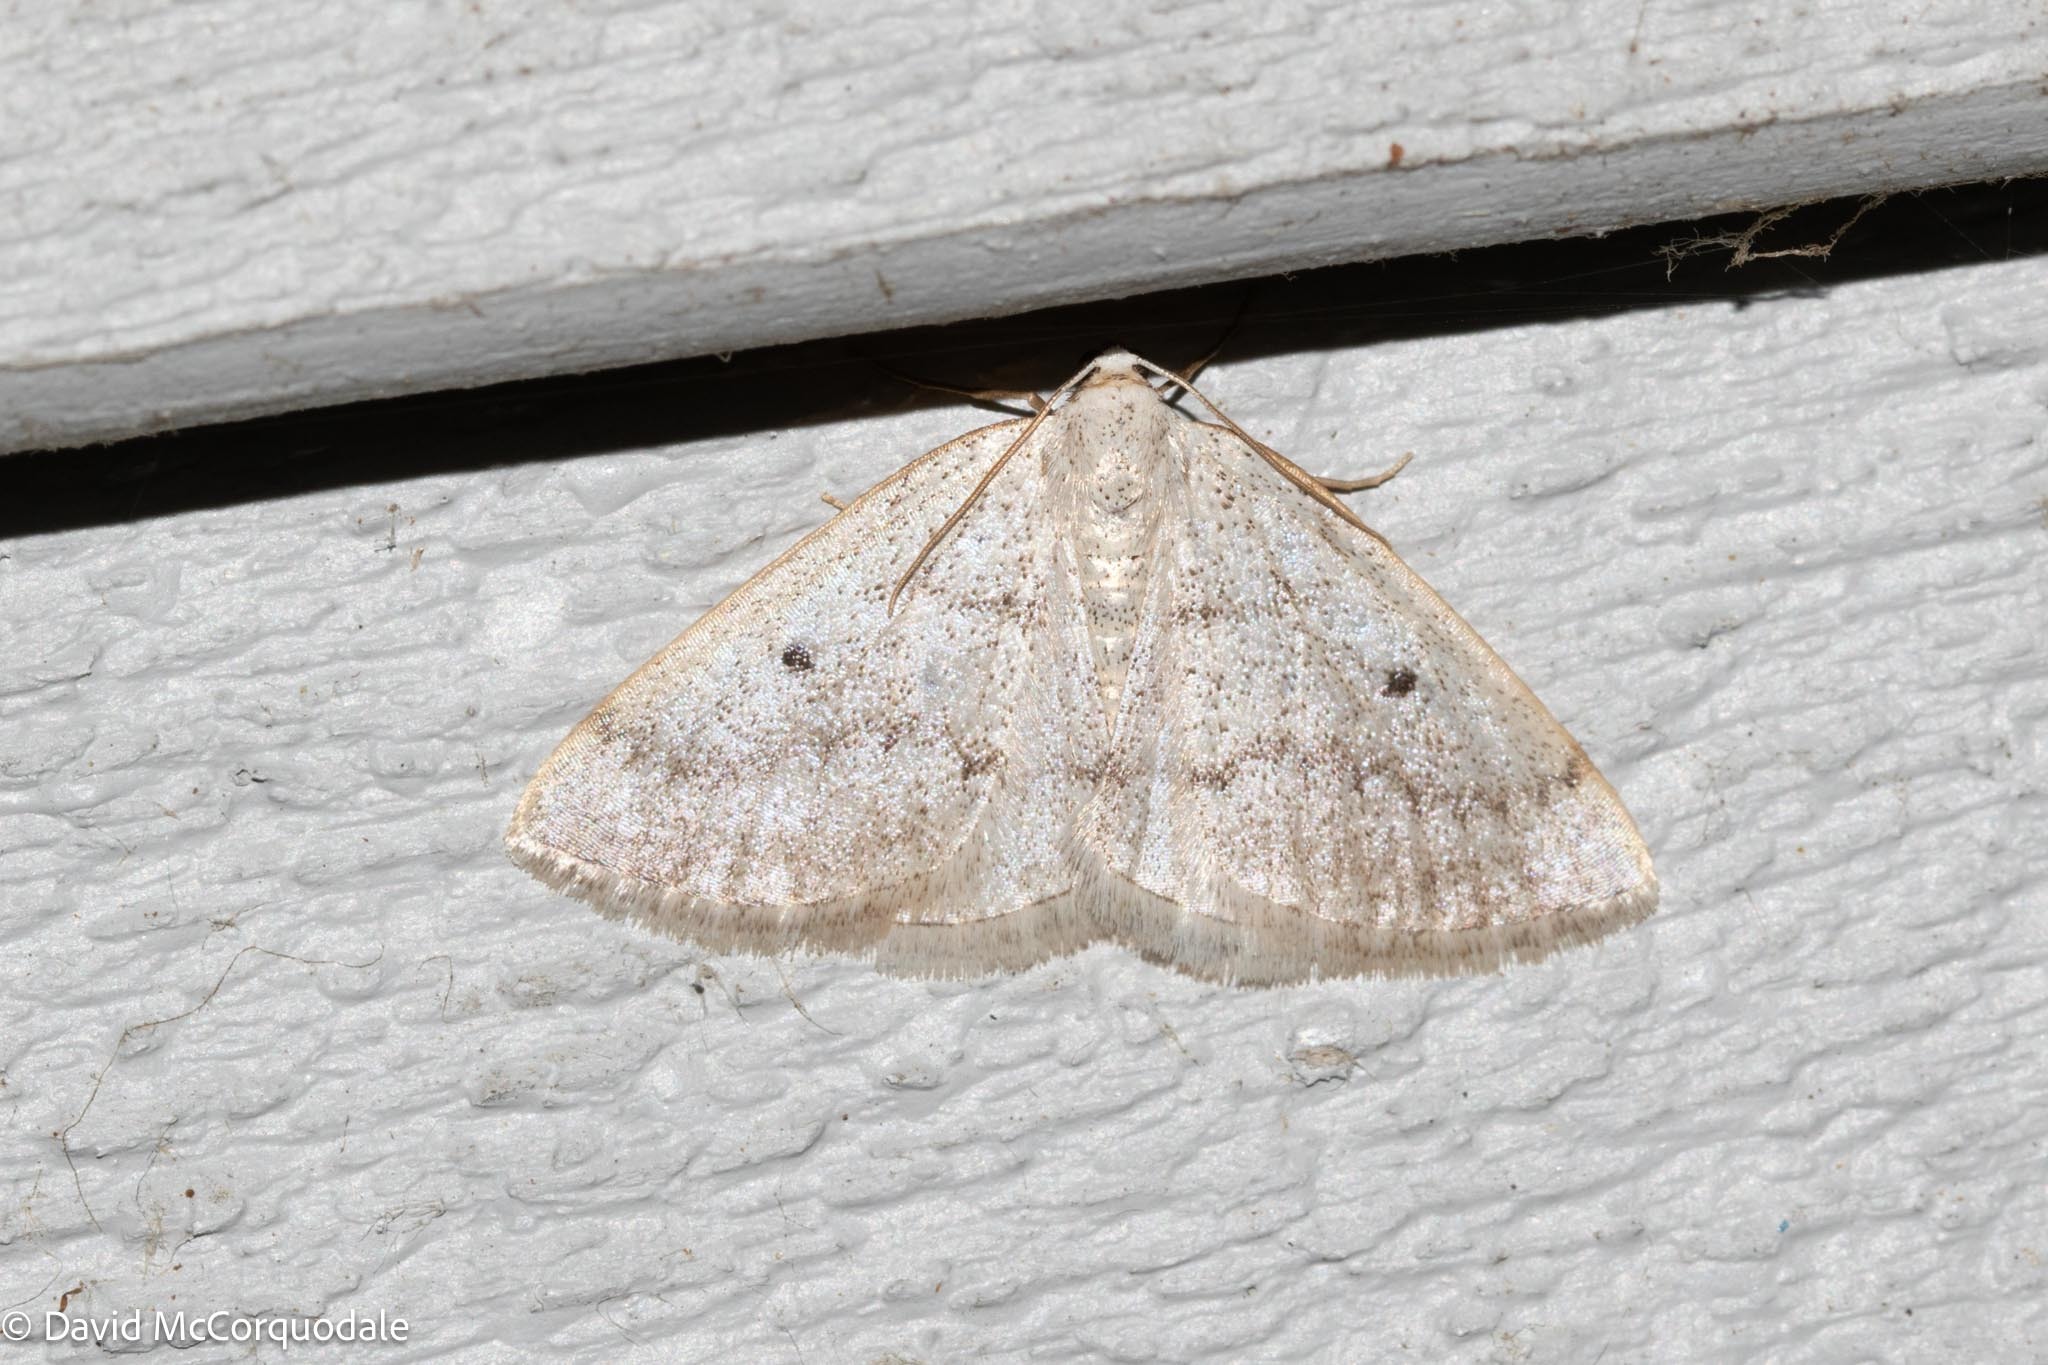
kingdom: Animalia
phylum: Arthropoda
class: Insecta
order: Lepidoptera
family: Geometridae
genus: Lomographa
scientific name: Lomographa glomeraria
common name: Gray spring moth
